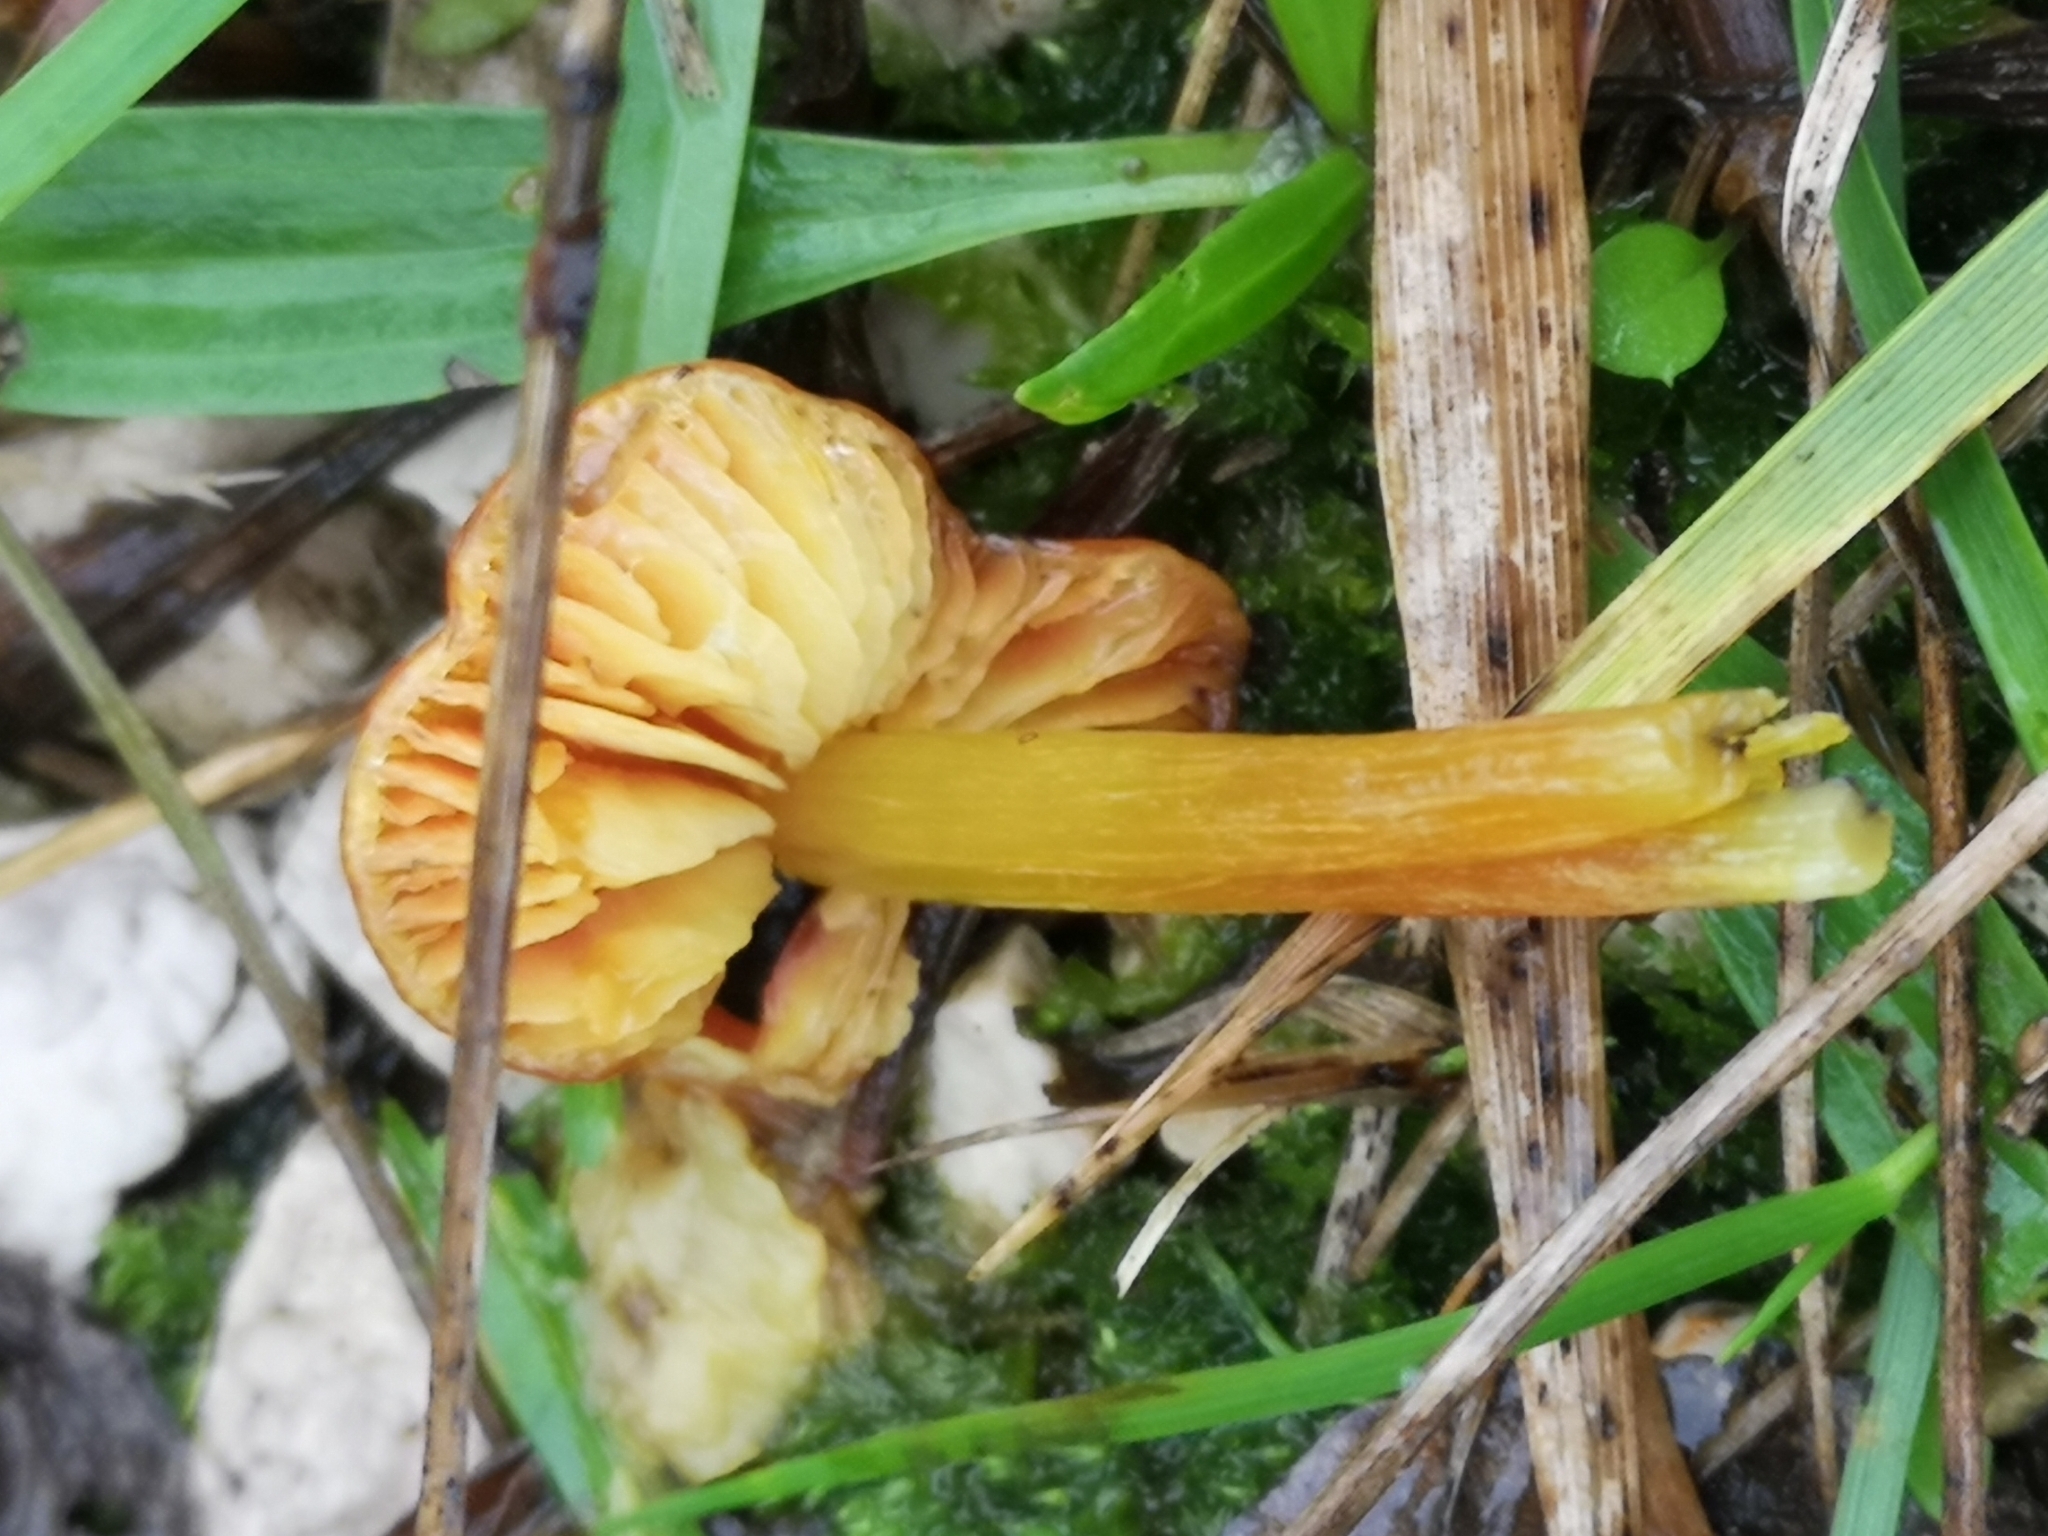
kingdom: Fungi
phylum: Basidiomycota
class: Agaricomycetes
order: Agaricales
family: Hygrophoraceae
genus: Hygrocybe
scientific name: Hygrocybe acutoconica
